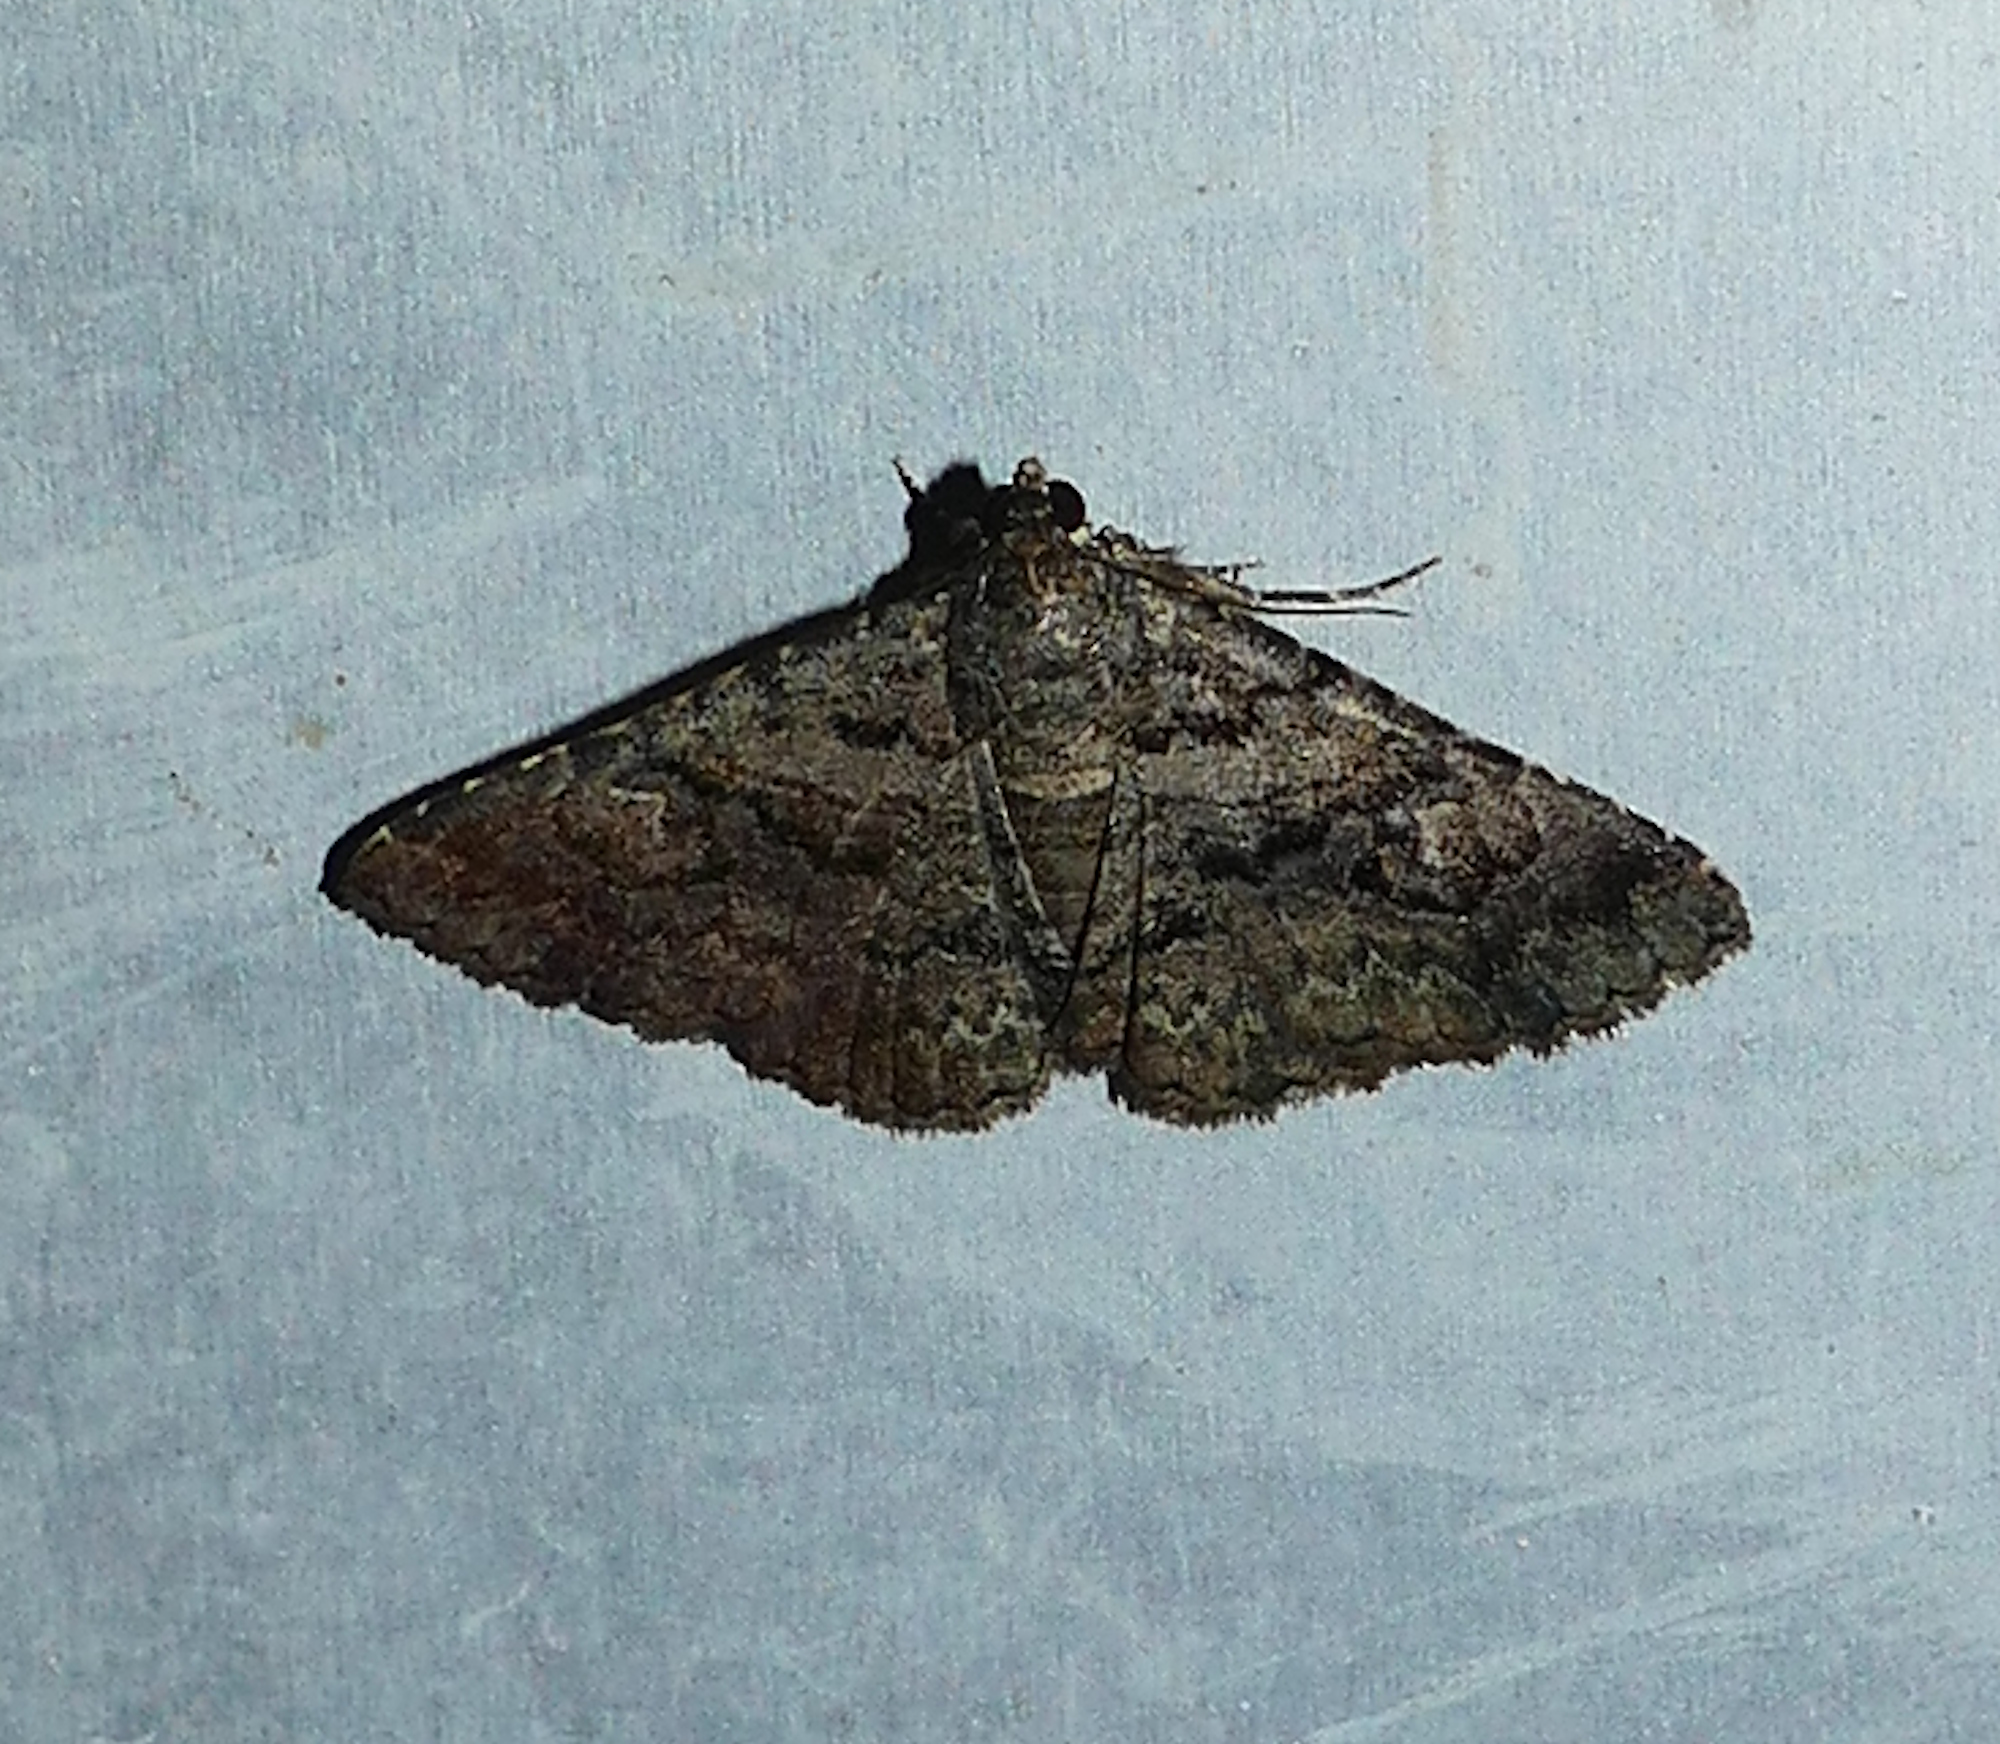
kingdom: Animalia
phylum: Arthropoda
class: Insecta
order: Lepidoptera
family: Erebidae
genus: Toxonprucha
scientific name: Toxonprucha excavata
